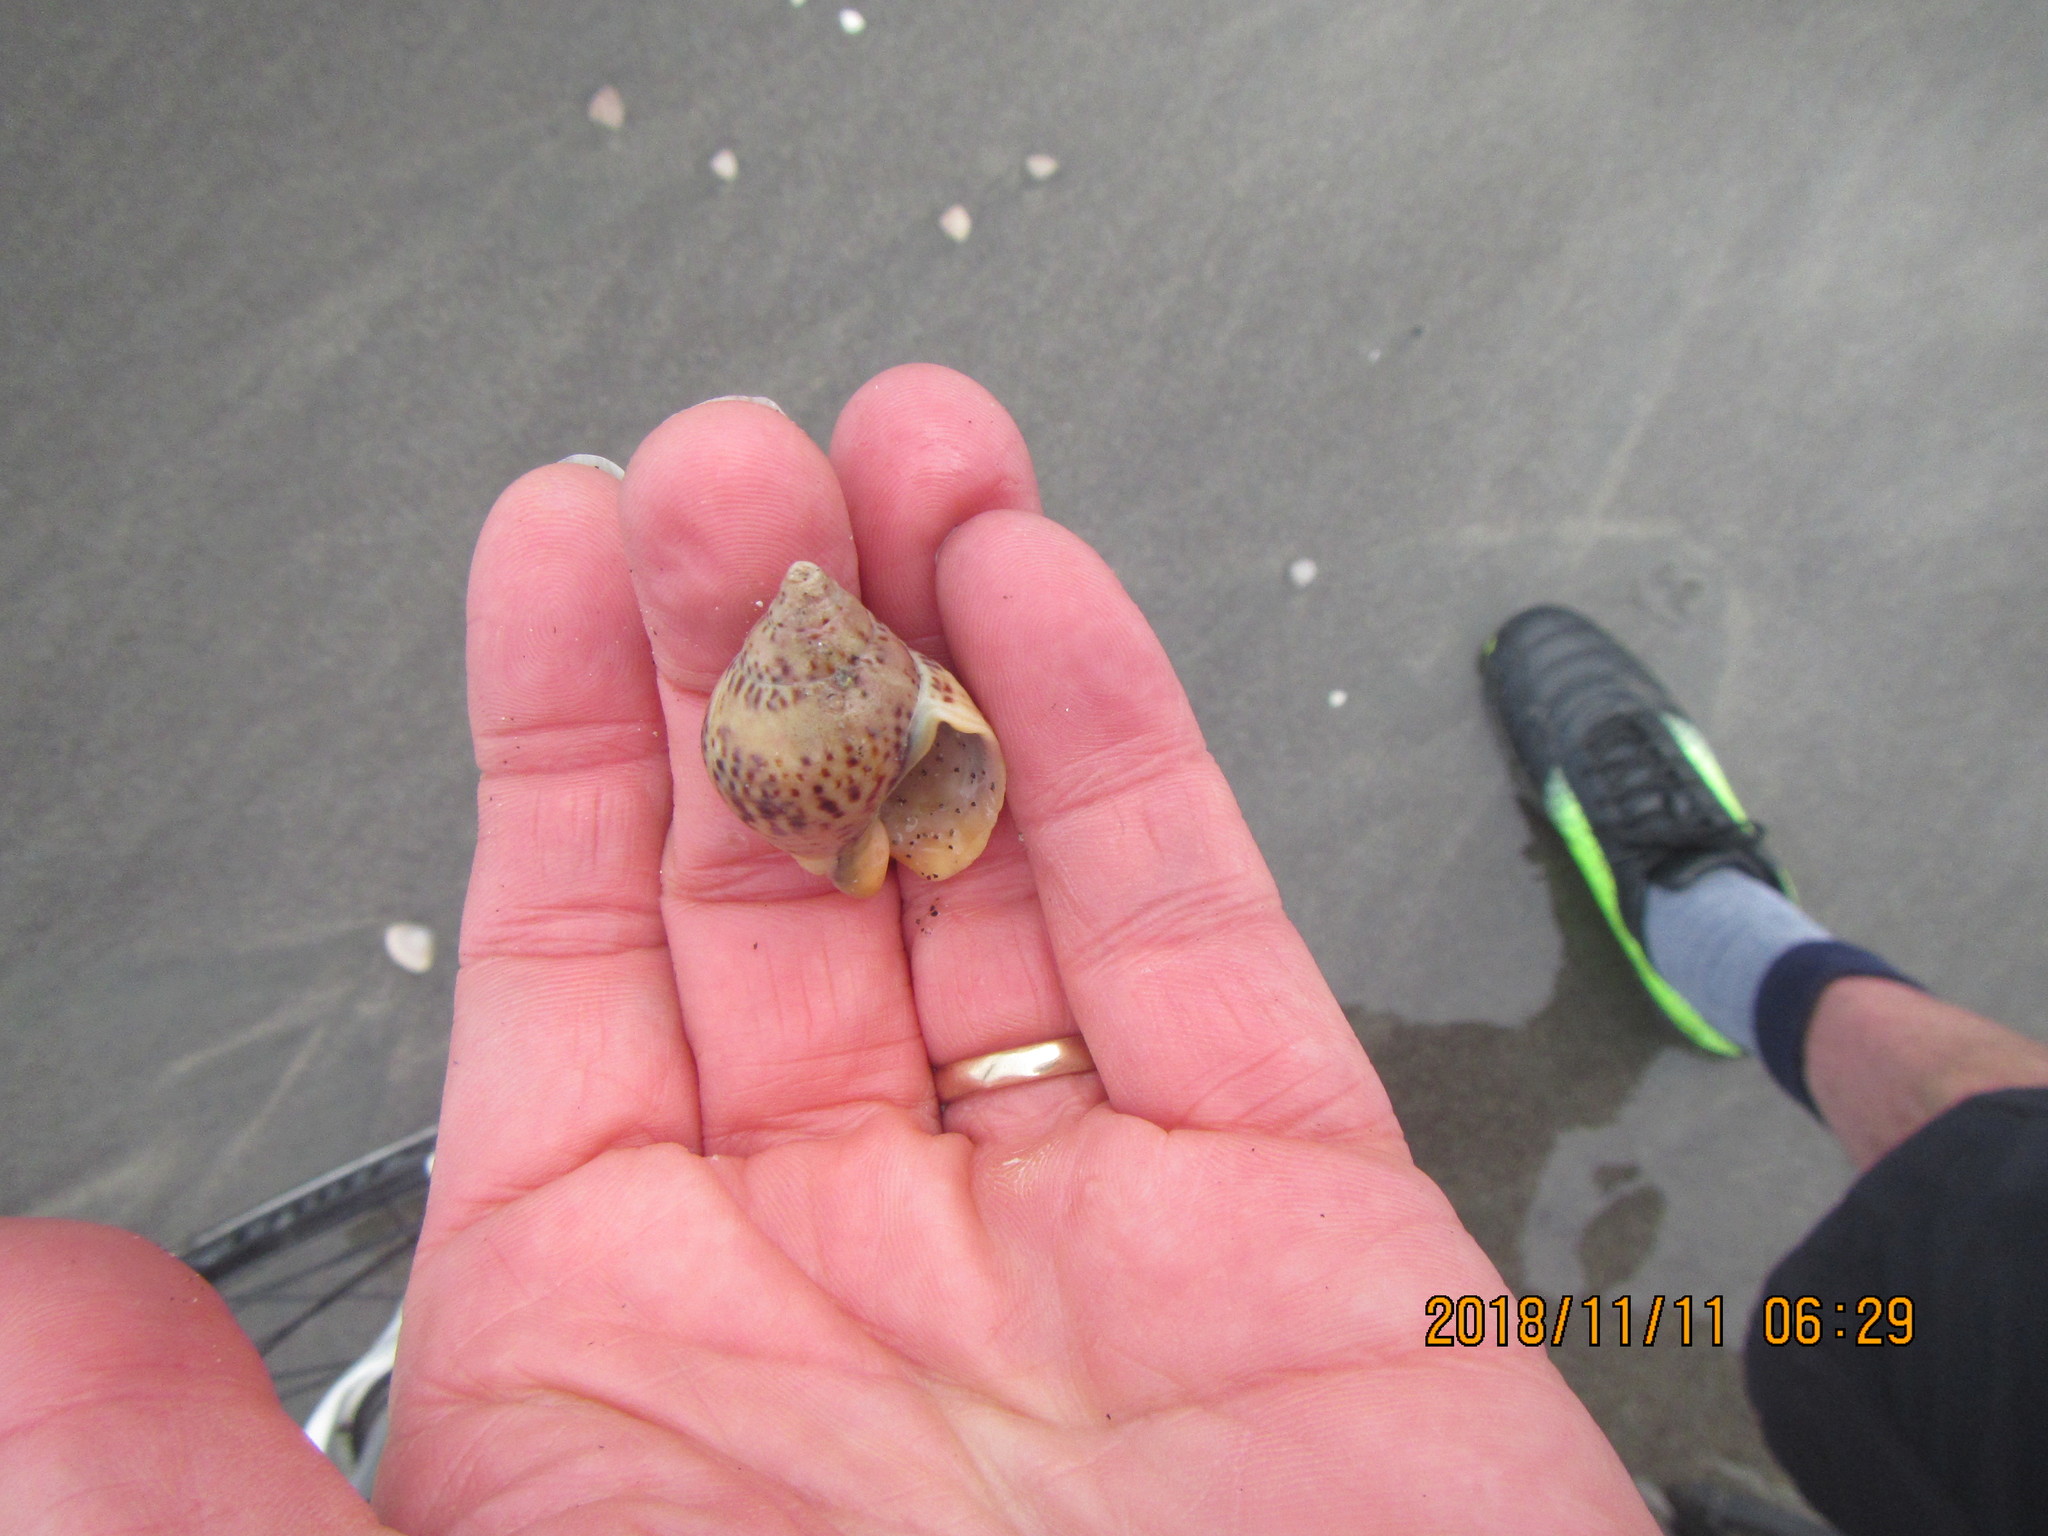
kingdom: Animalia
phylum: Mollusca
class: Gastropoda
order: Neogastropoda
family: Cominellidae
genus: Cominella
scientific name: Cominella adspersa
